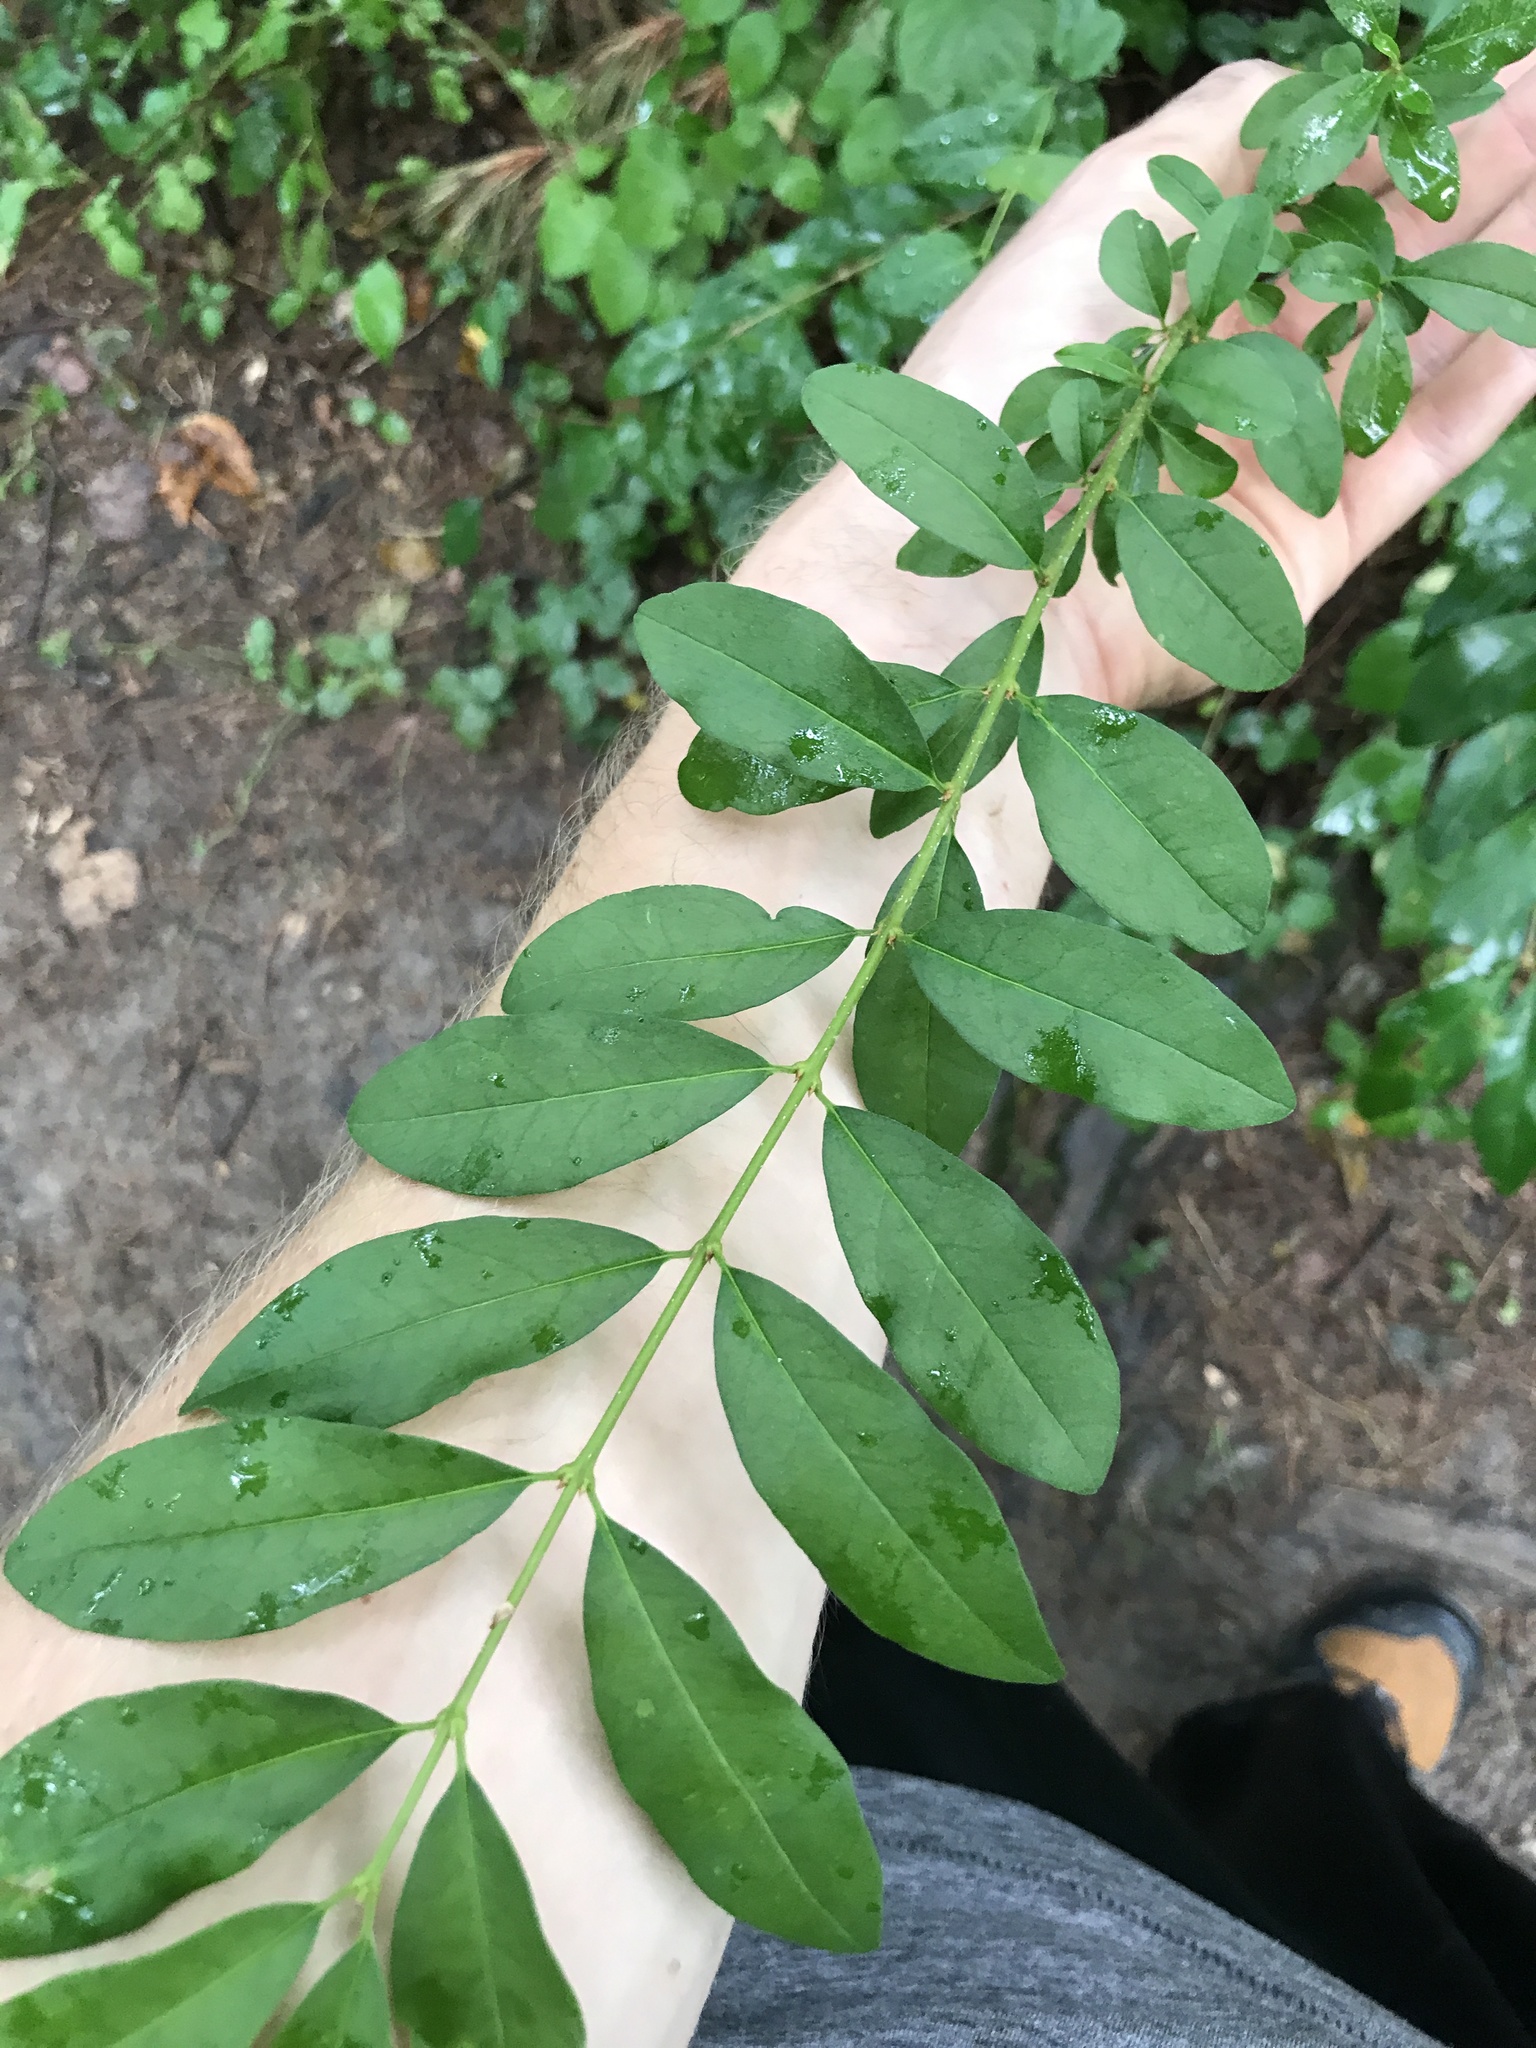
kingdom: Plantae
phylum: Tracheophyta
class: Magnoliopsida
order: Lamiales
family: Oleaceae
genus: Ligustrum
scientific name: Ligustrum
